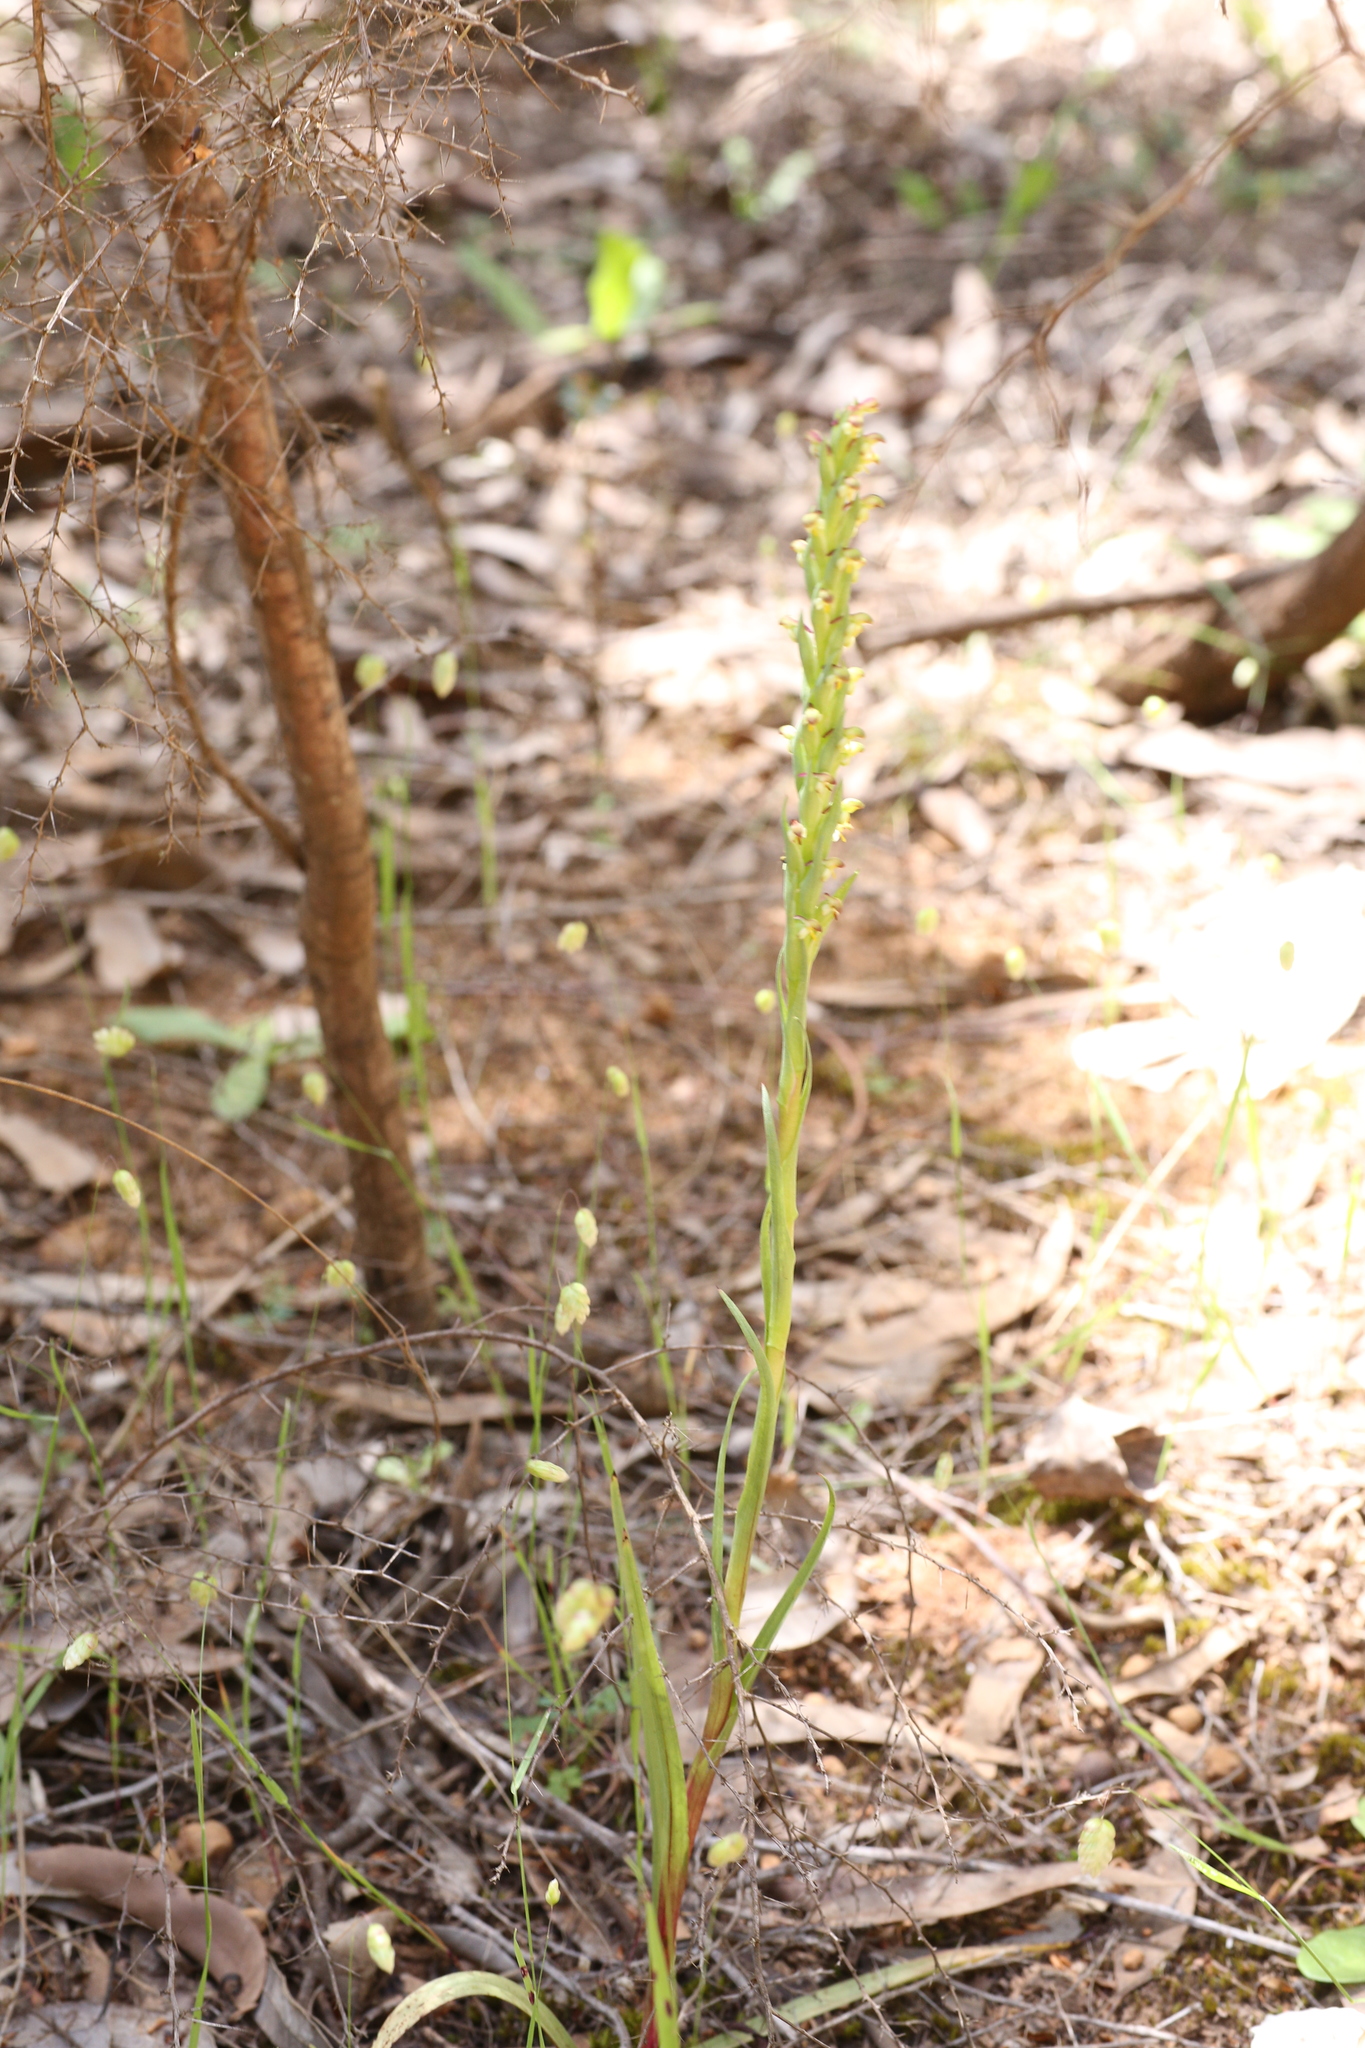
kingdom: Plantae
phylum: Tracheophyta
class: Liliopsida
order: Asparagales
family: Orchidaceae
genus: Disa
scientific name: Disa bracteata
